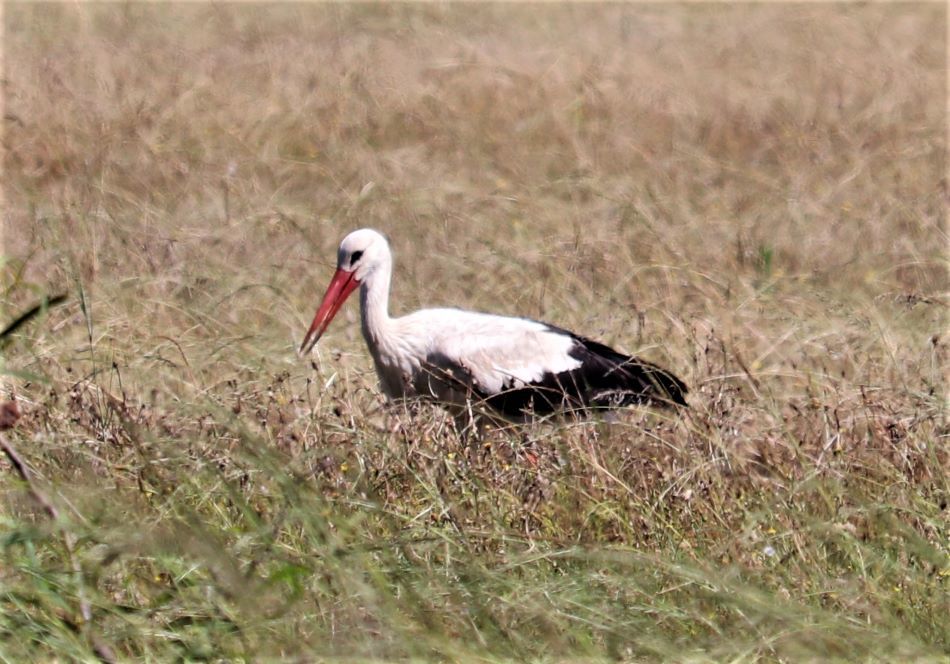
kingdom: Animalia
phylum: Chordata
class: Aves
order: Ciconiiformes
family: Ciconiidae
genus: Ciconia
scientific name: Ciconia ciconia
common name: White stork
